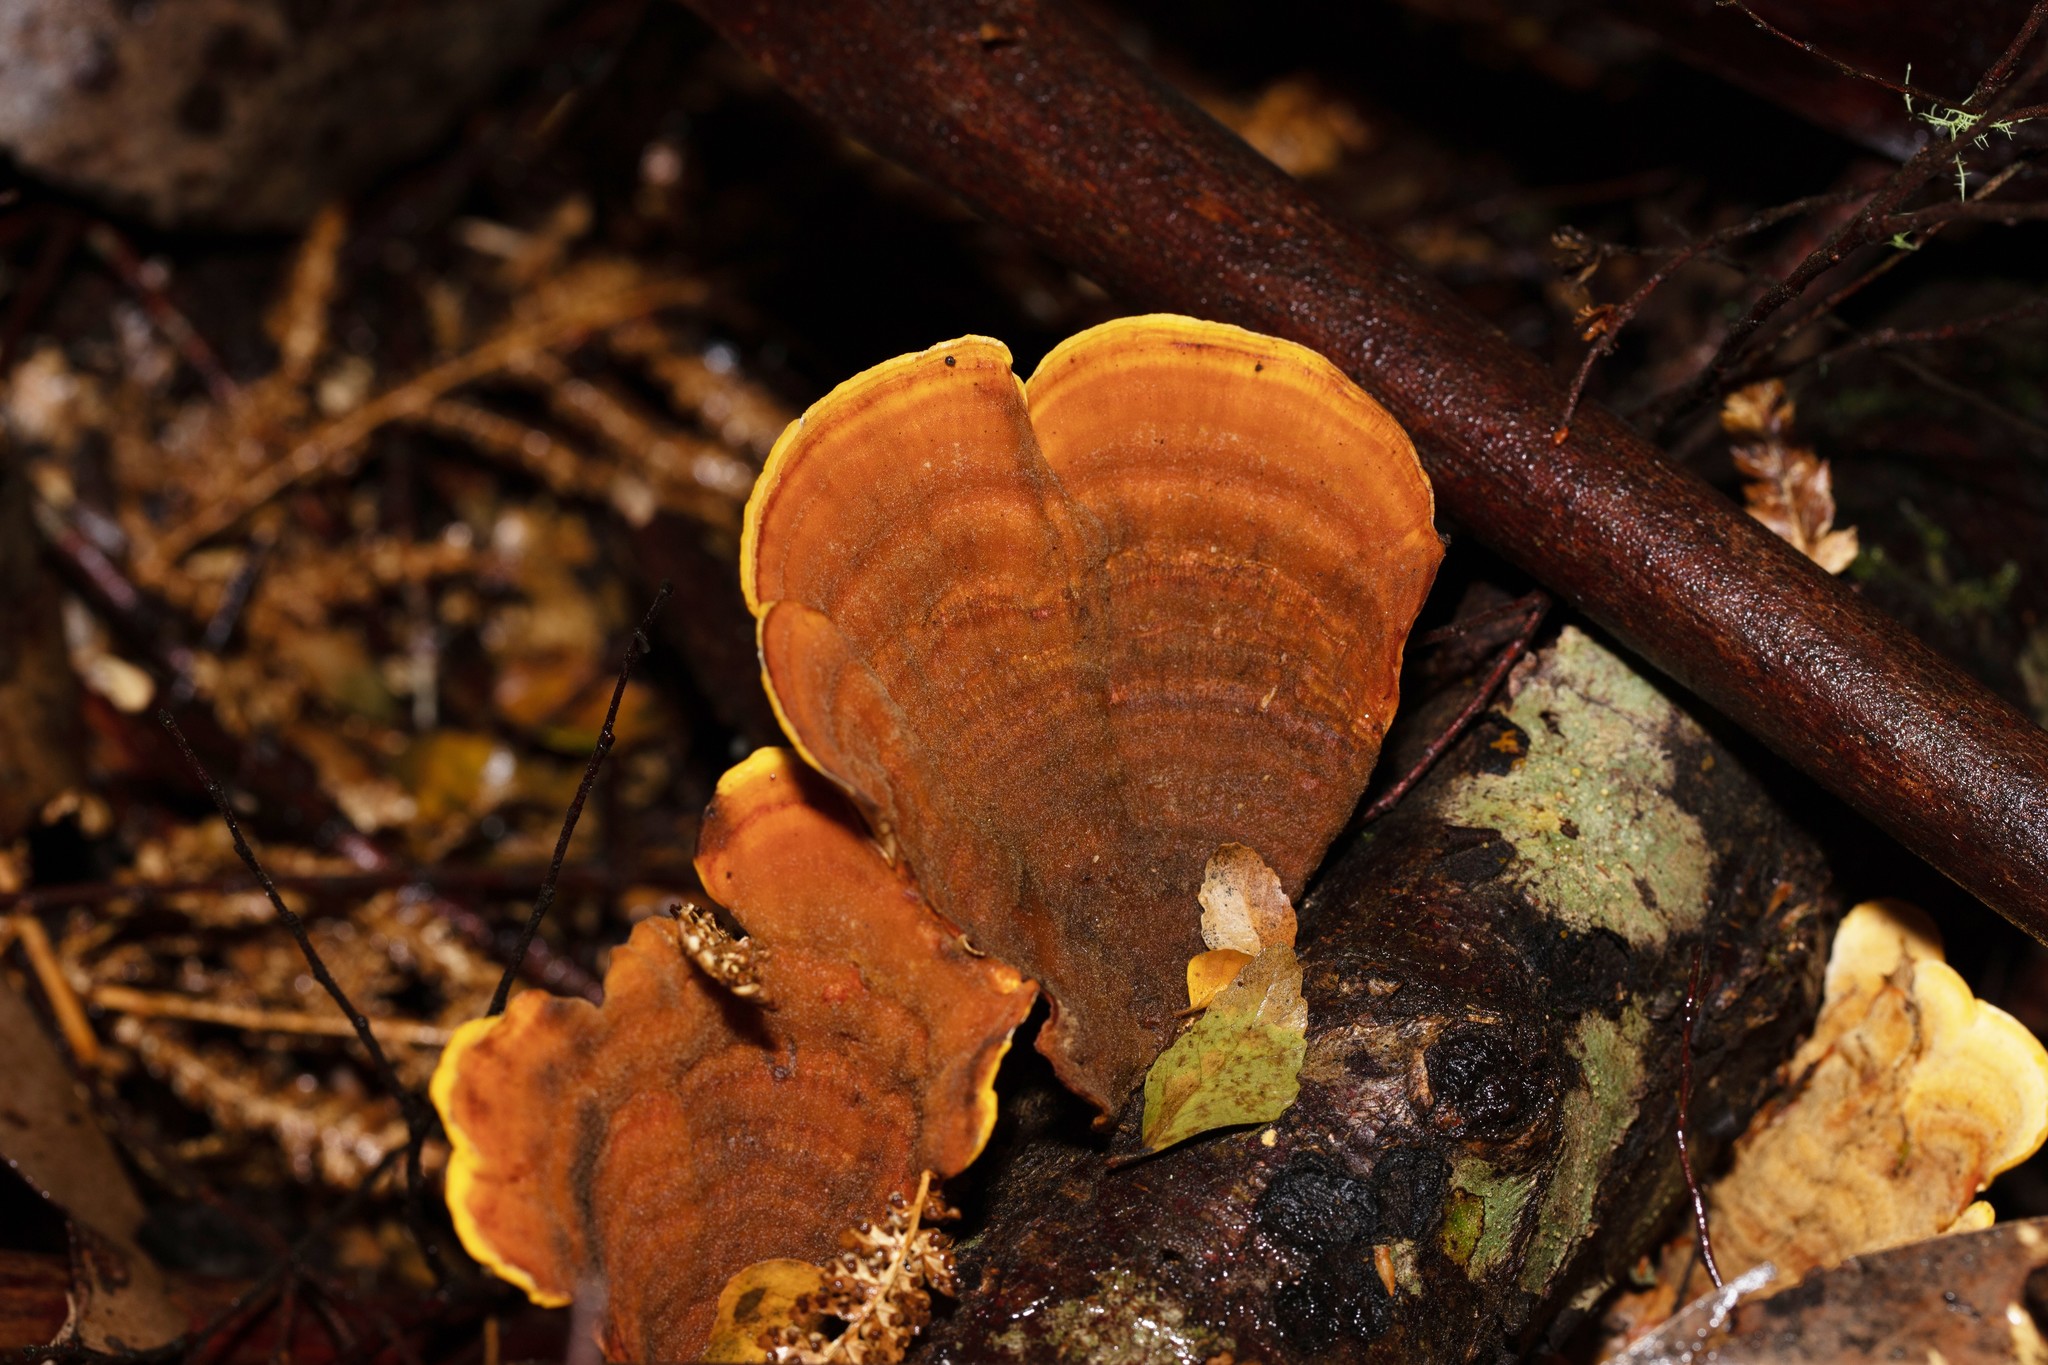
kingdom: Fungi
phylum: Basidiomycota
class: Agaricomycetes
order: Russulales
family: Stereaceae
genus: Stereum
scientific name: Stereum versicolor
